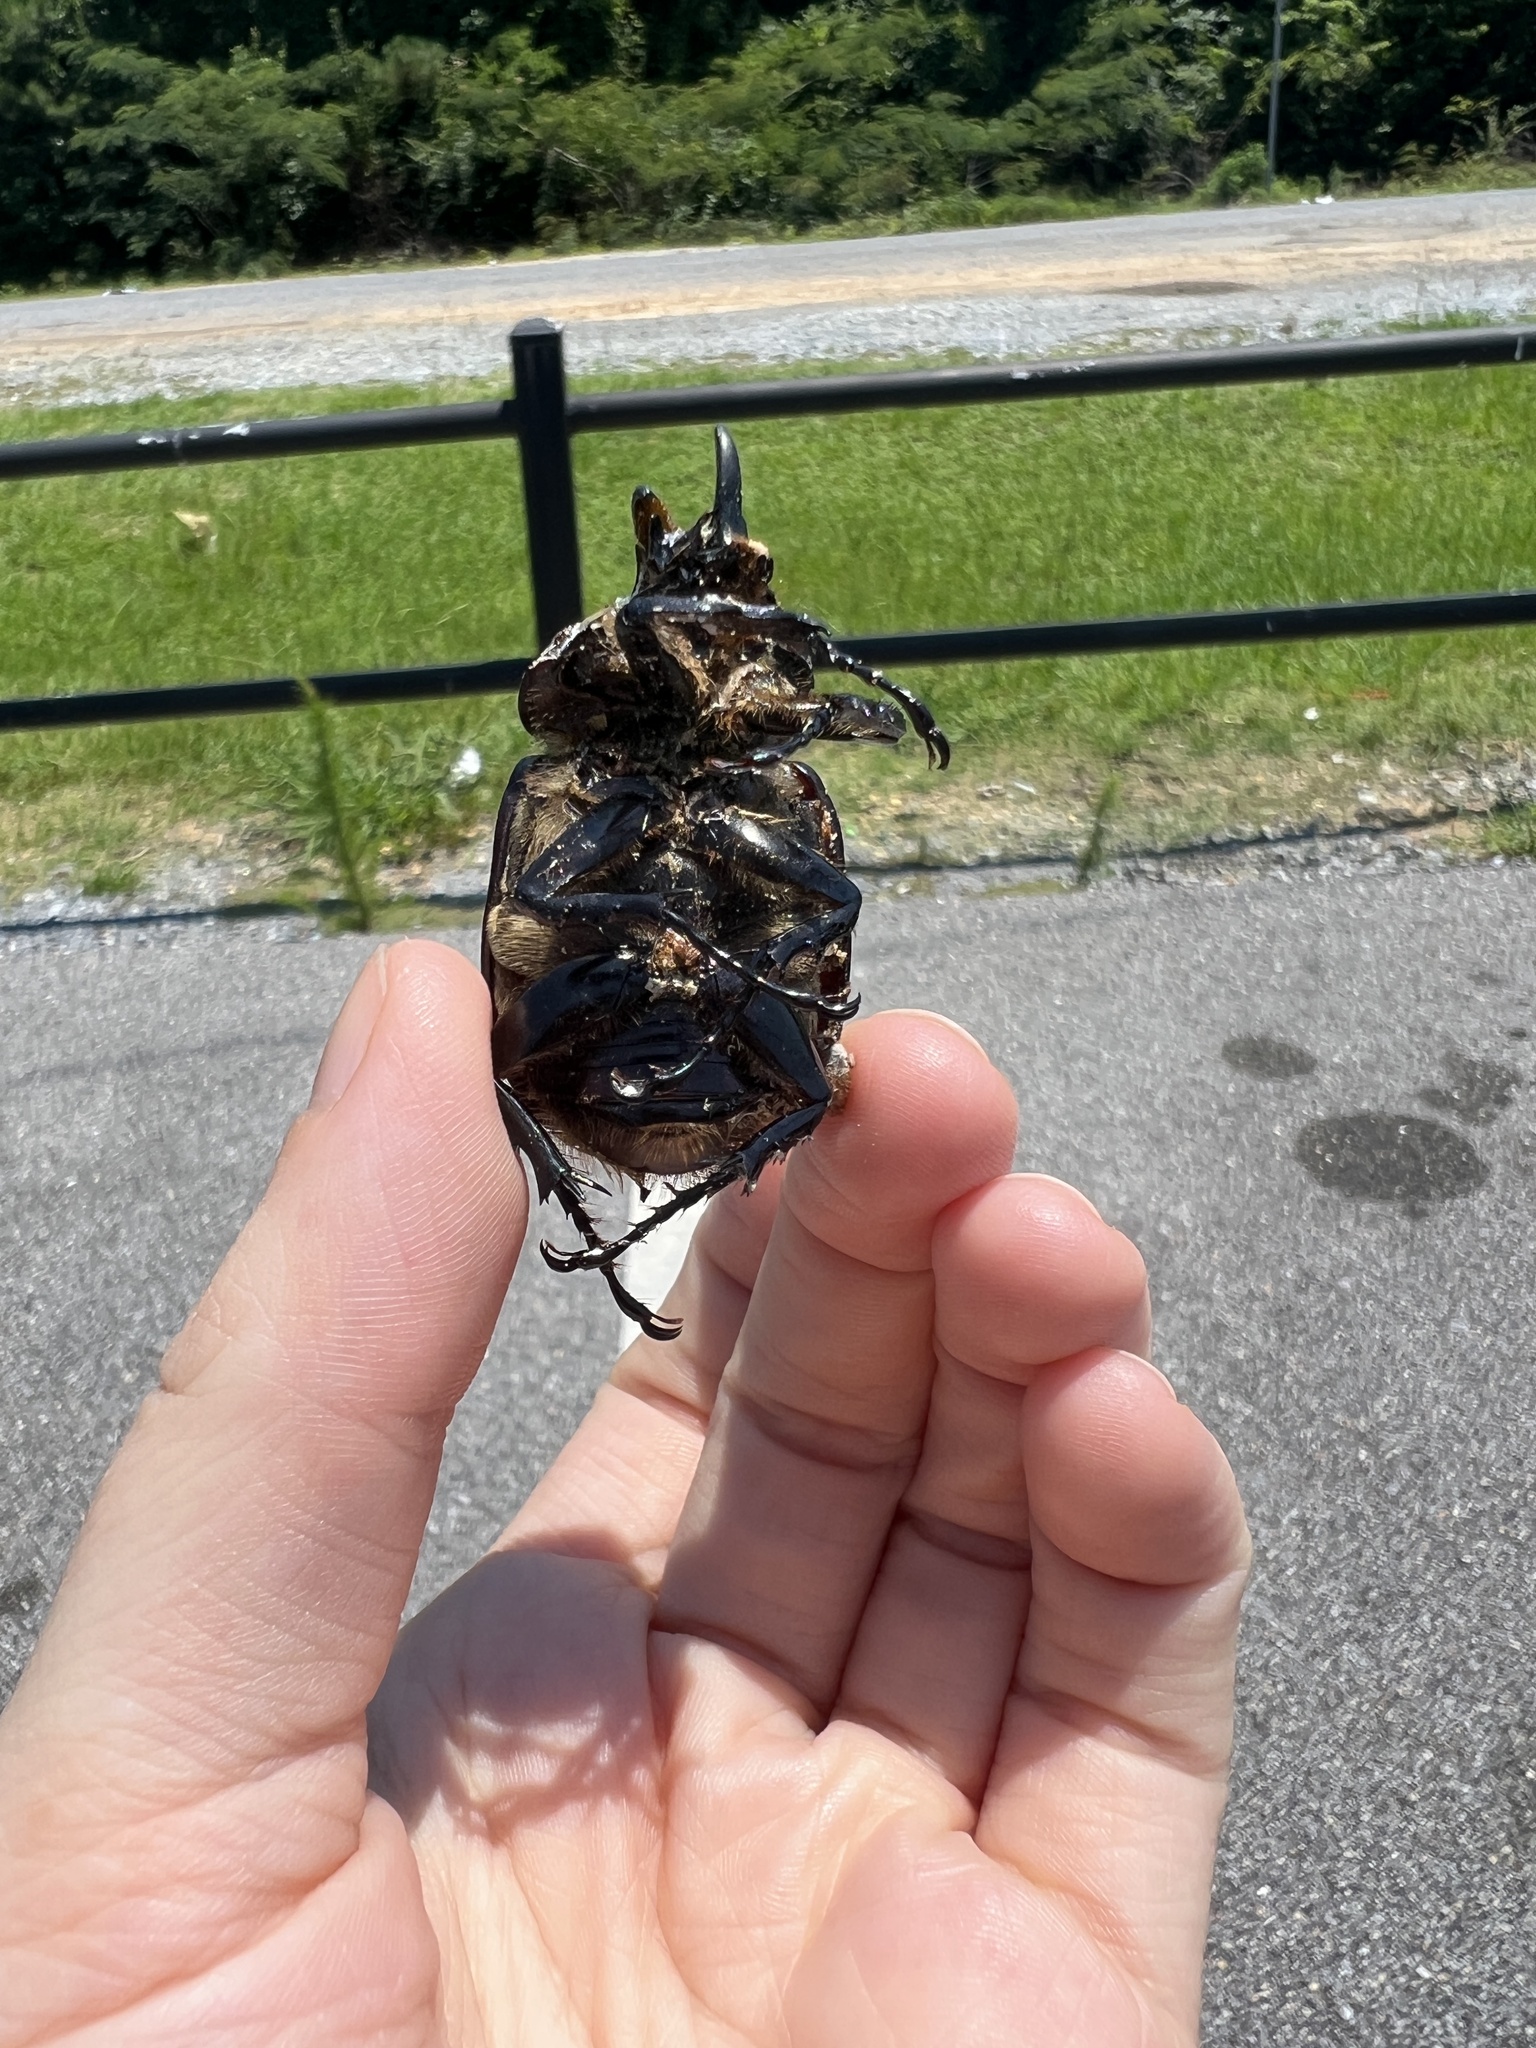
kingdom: Animalia
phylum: Arthropoda
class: Insecta
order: Coleoptera
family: Scarabaeidae
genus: Dynastes
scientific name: Dynastes tityus
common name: Eastern hercules beetle
